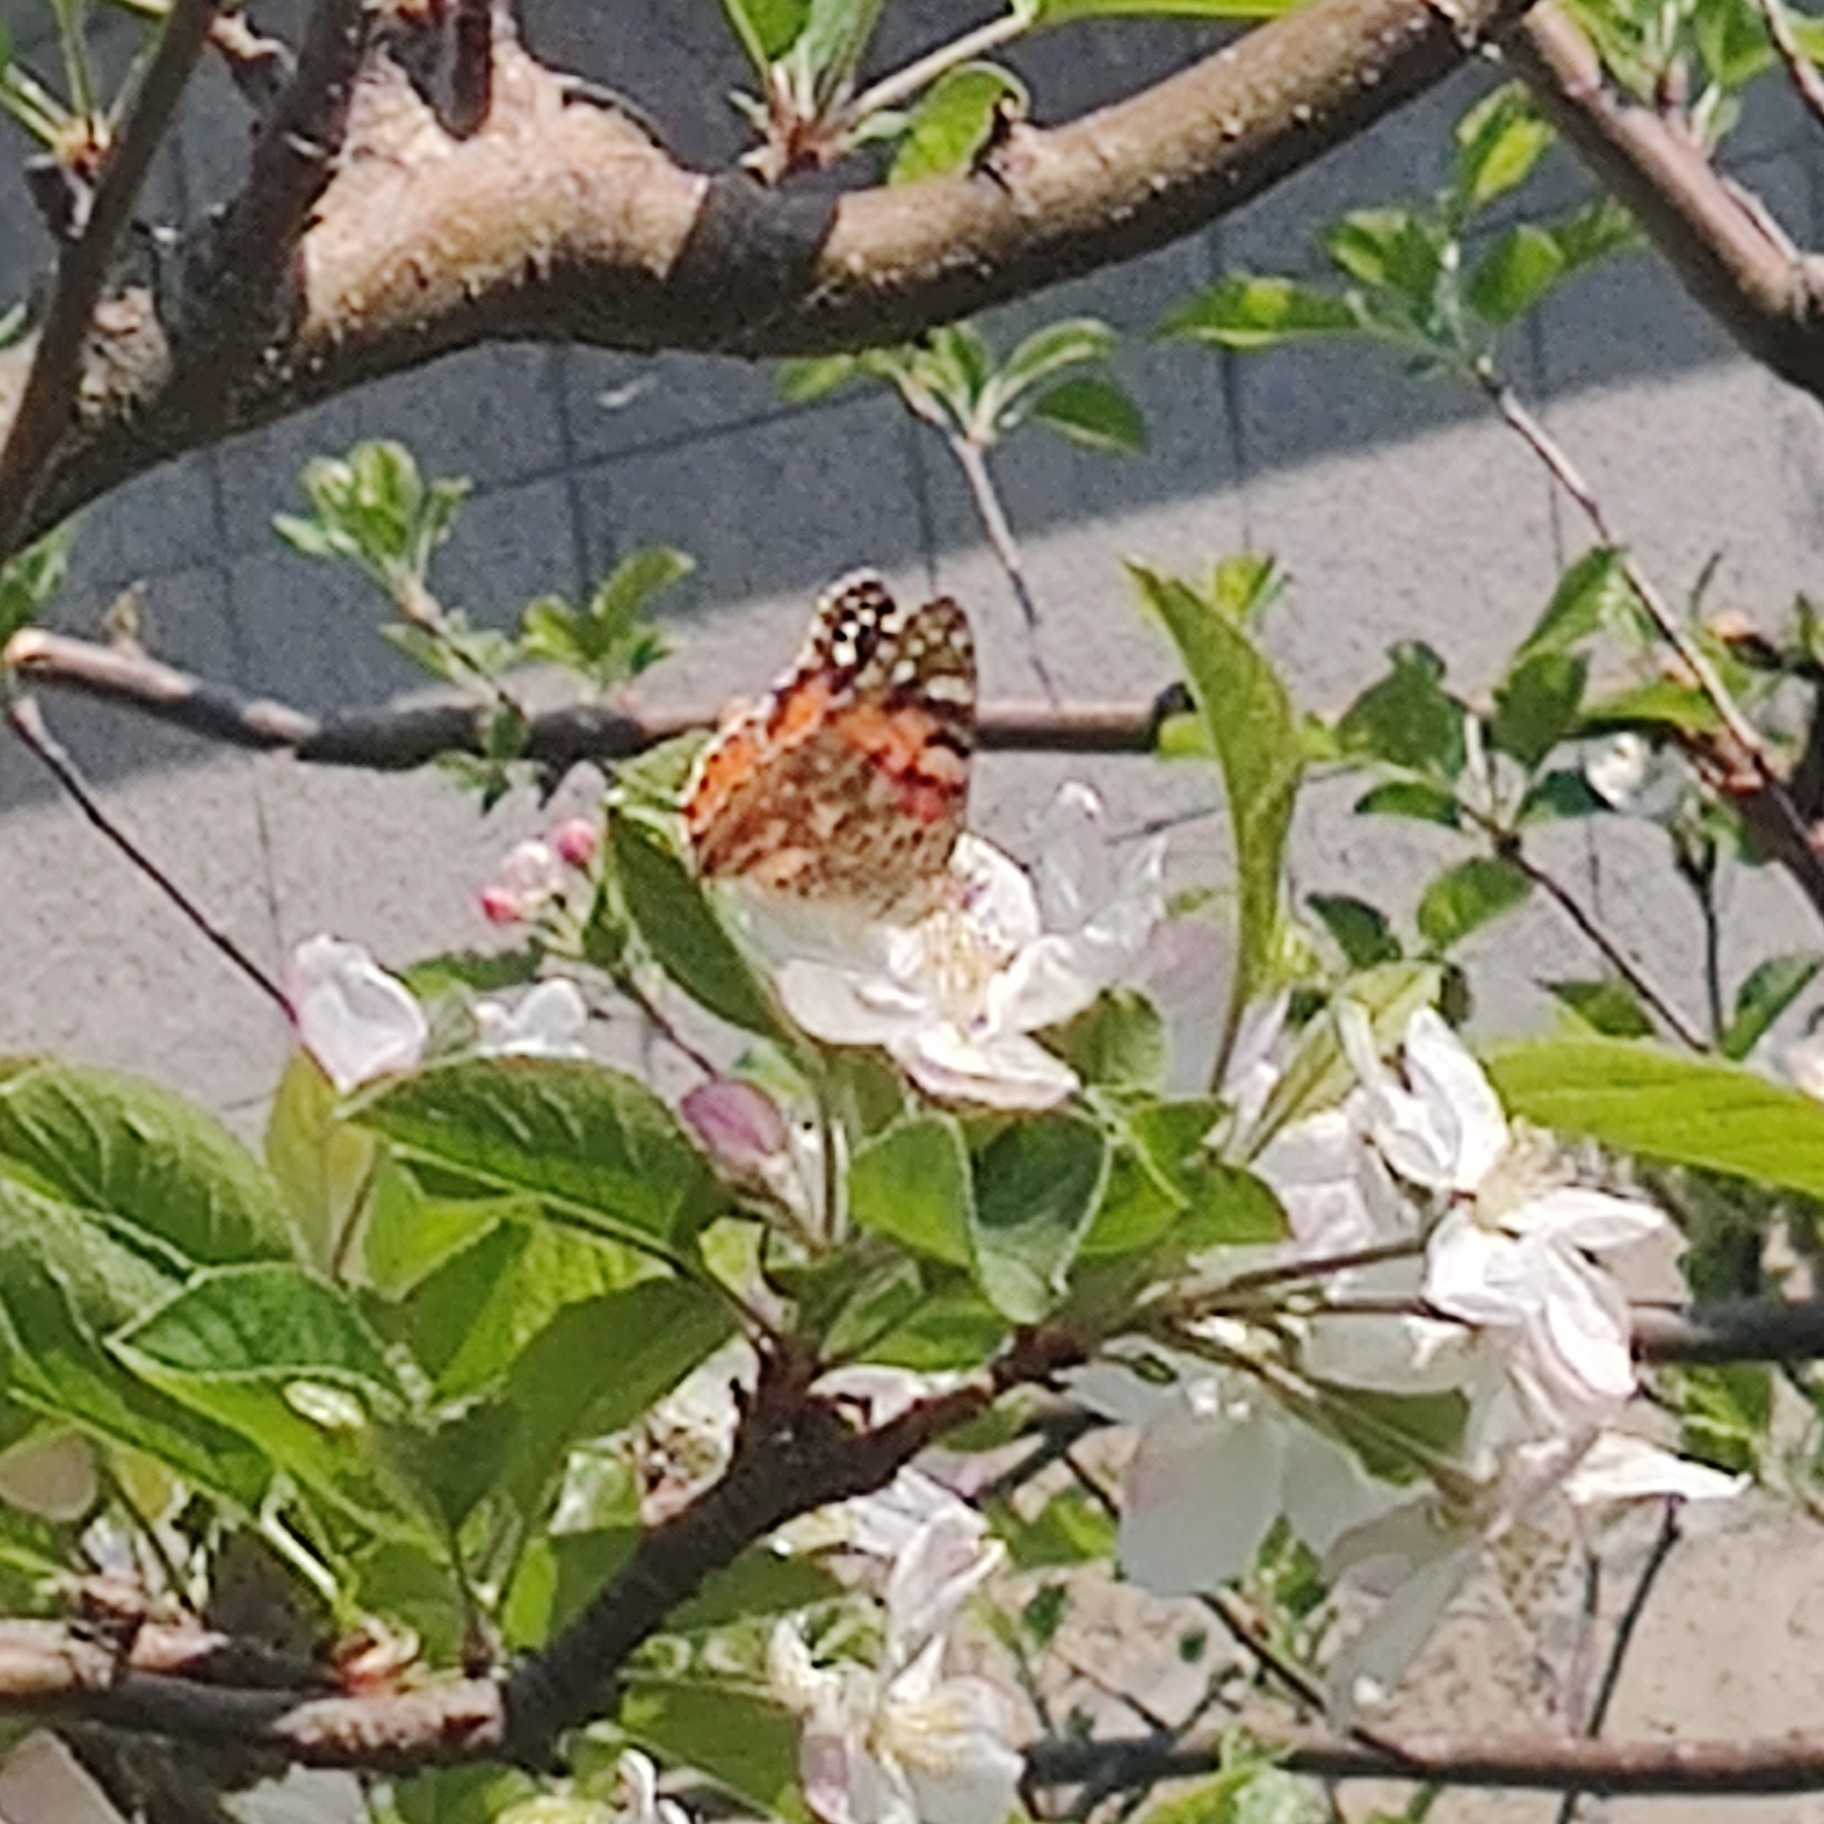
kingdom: Animalia
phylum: Arthropoda
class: Insecta
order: Lepidoptera
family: Nymphalidae
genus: Vanessa
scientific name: Vanessa cardui
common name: Painted lady
